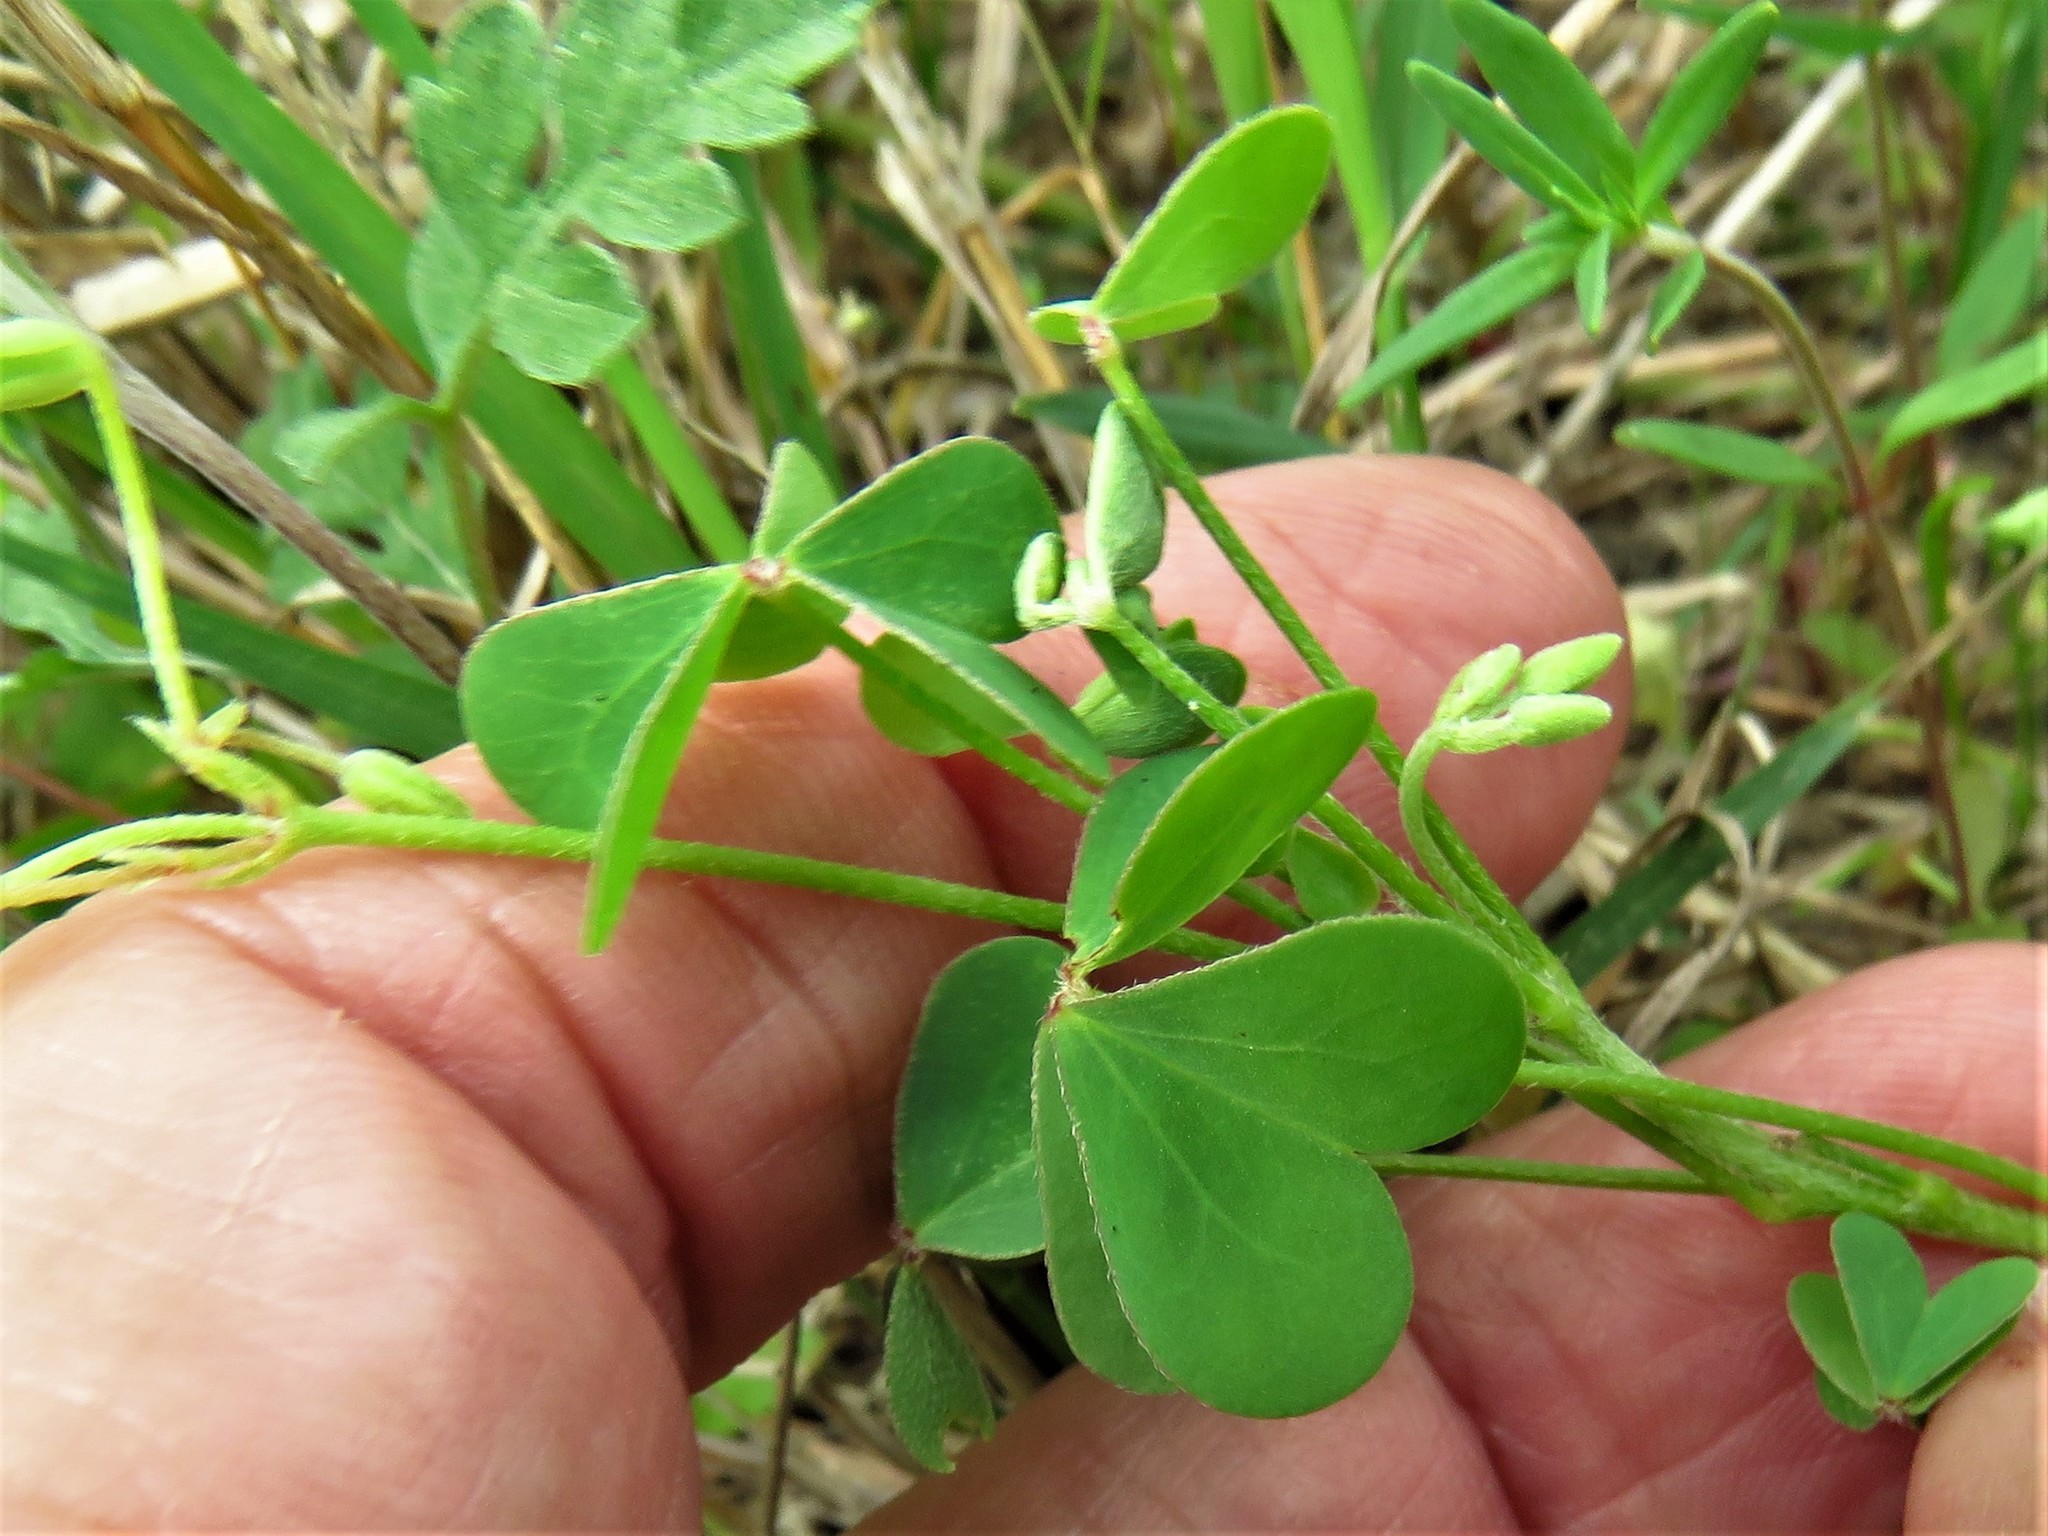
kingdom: Plantae
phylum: Tracheophyta
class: Magnoliopsida
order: Oxalidales
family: Oxalidaceae
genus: Oxalis
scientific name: Oxalis dillenii
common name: Sussex yellow-sorrel
